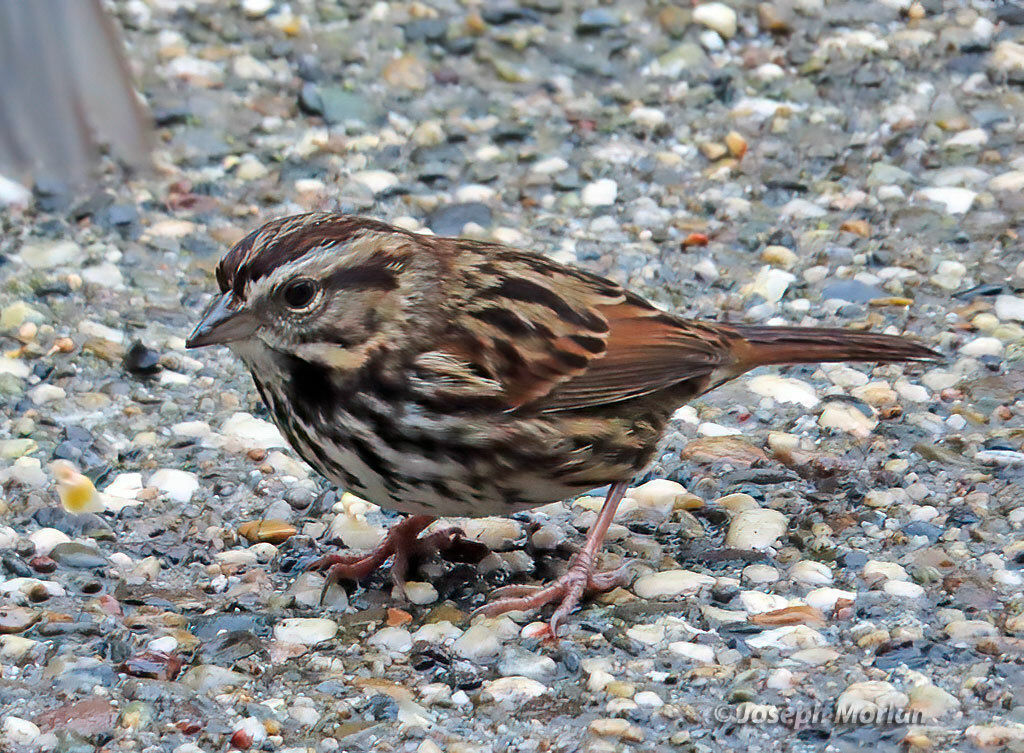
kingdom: Animalia
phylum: Chordata
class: Aves
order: Passeriformes
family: Passerellidae
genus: Melospiza
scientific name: Melospiza melodia
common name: Song sparrow
